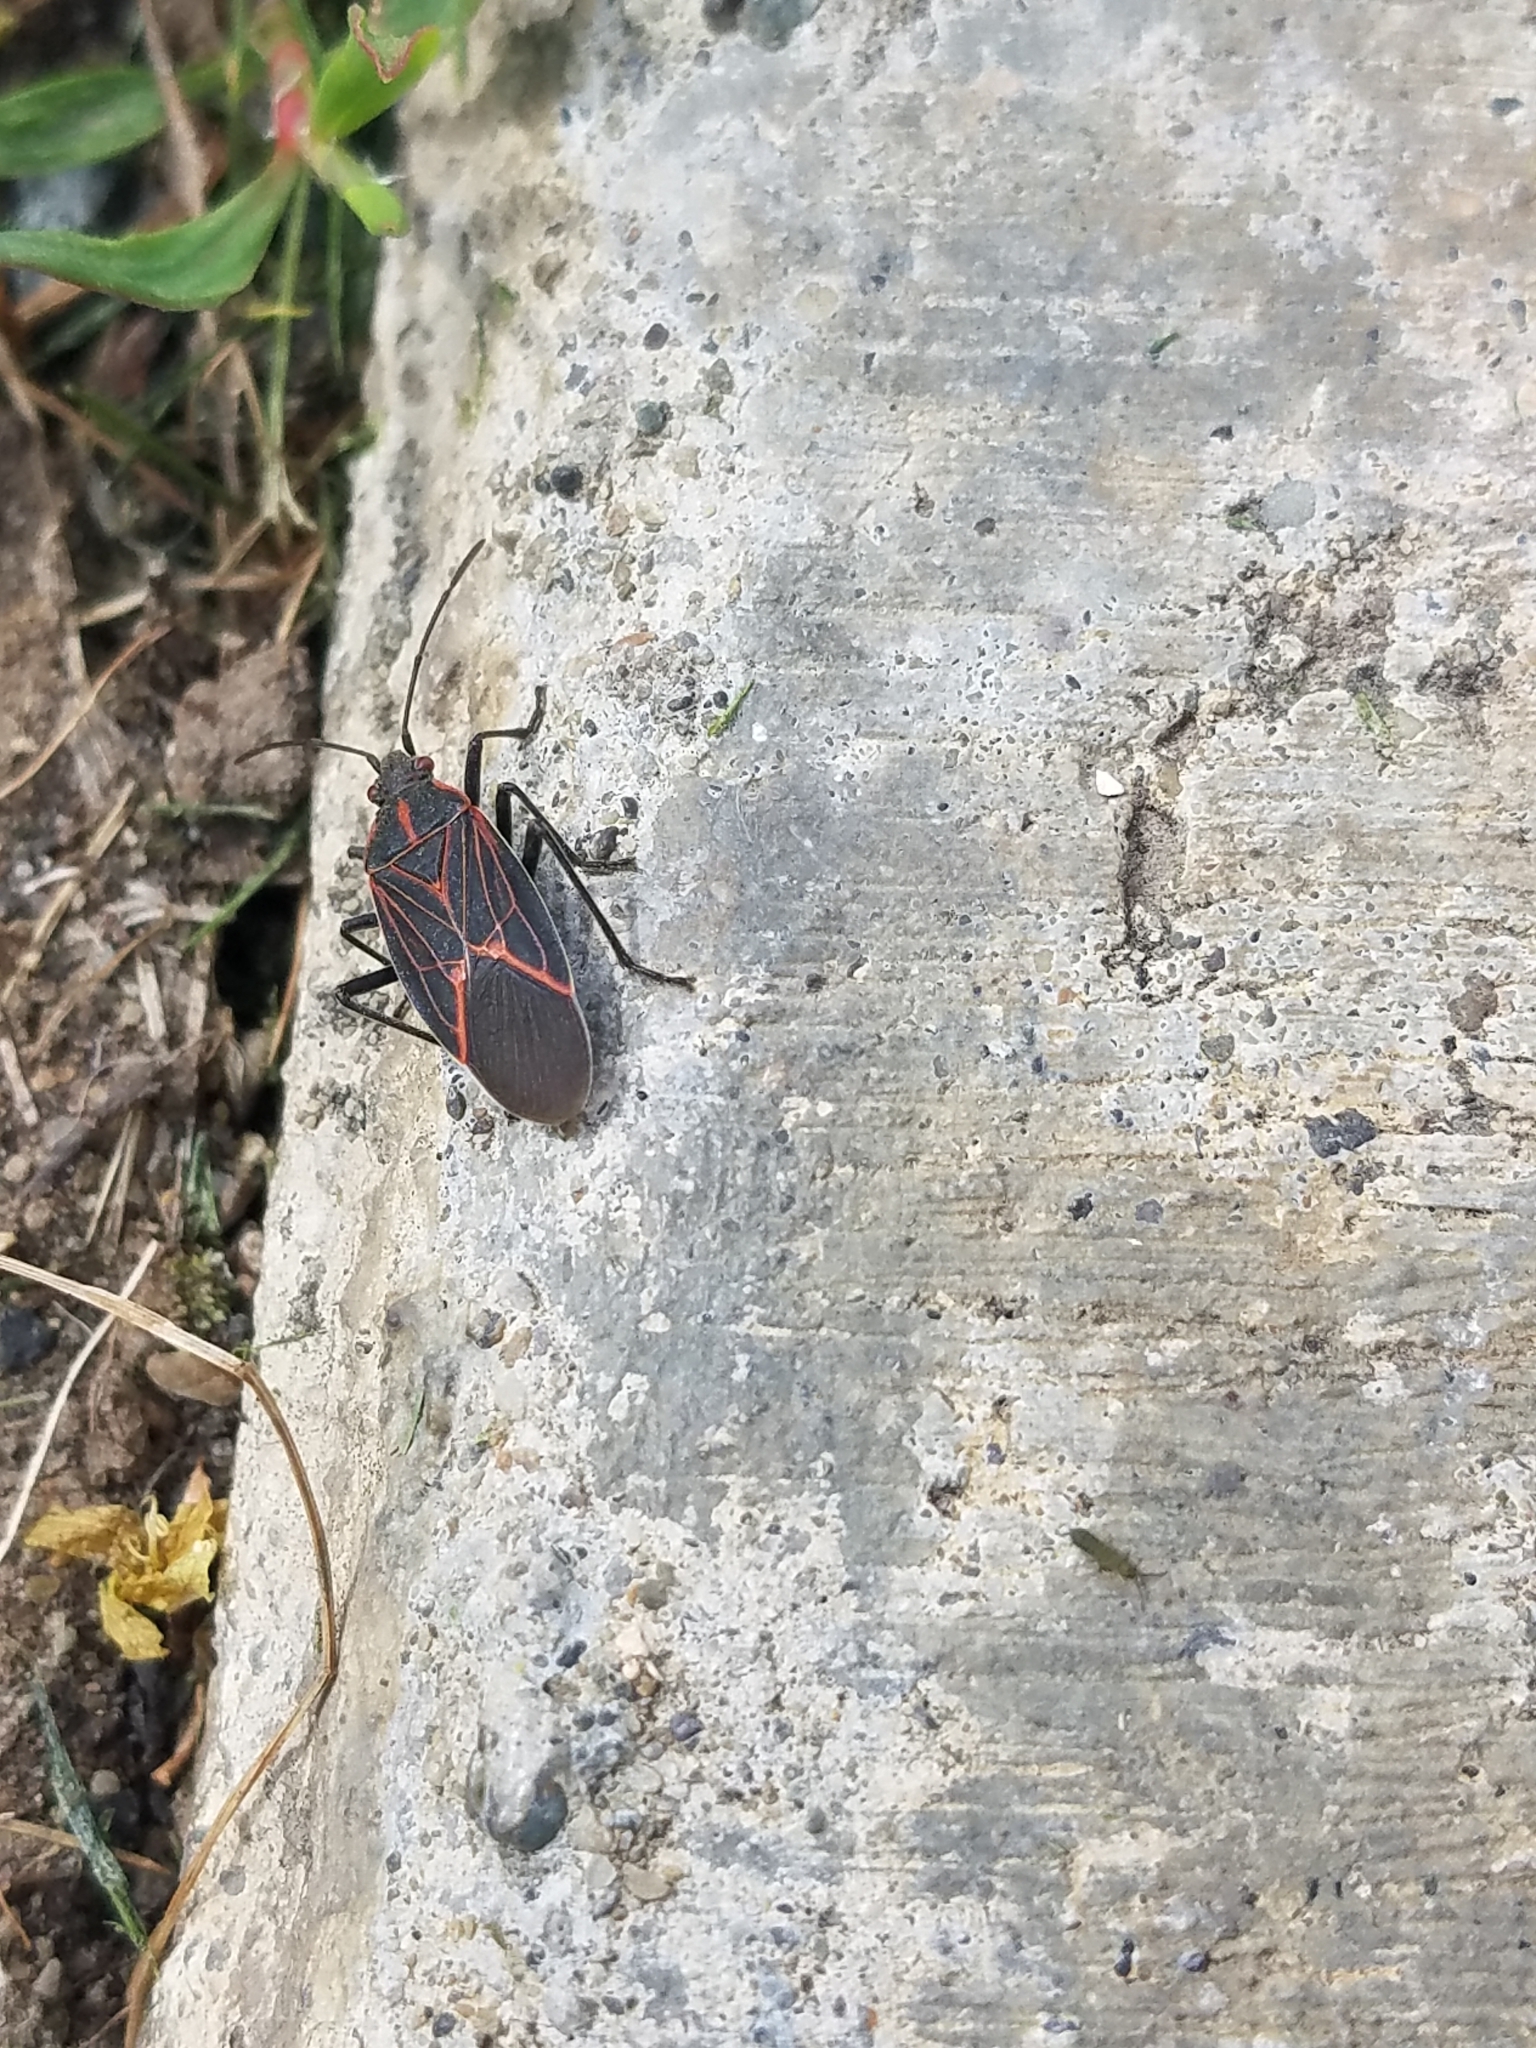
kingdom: Animalia
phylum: Arthropoda
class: Insecta
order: Hemiptera
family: Rhopalidae
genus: Boisea
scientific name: Boisea rubrolineata
